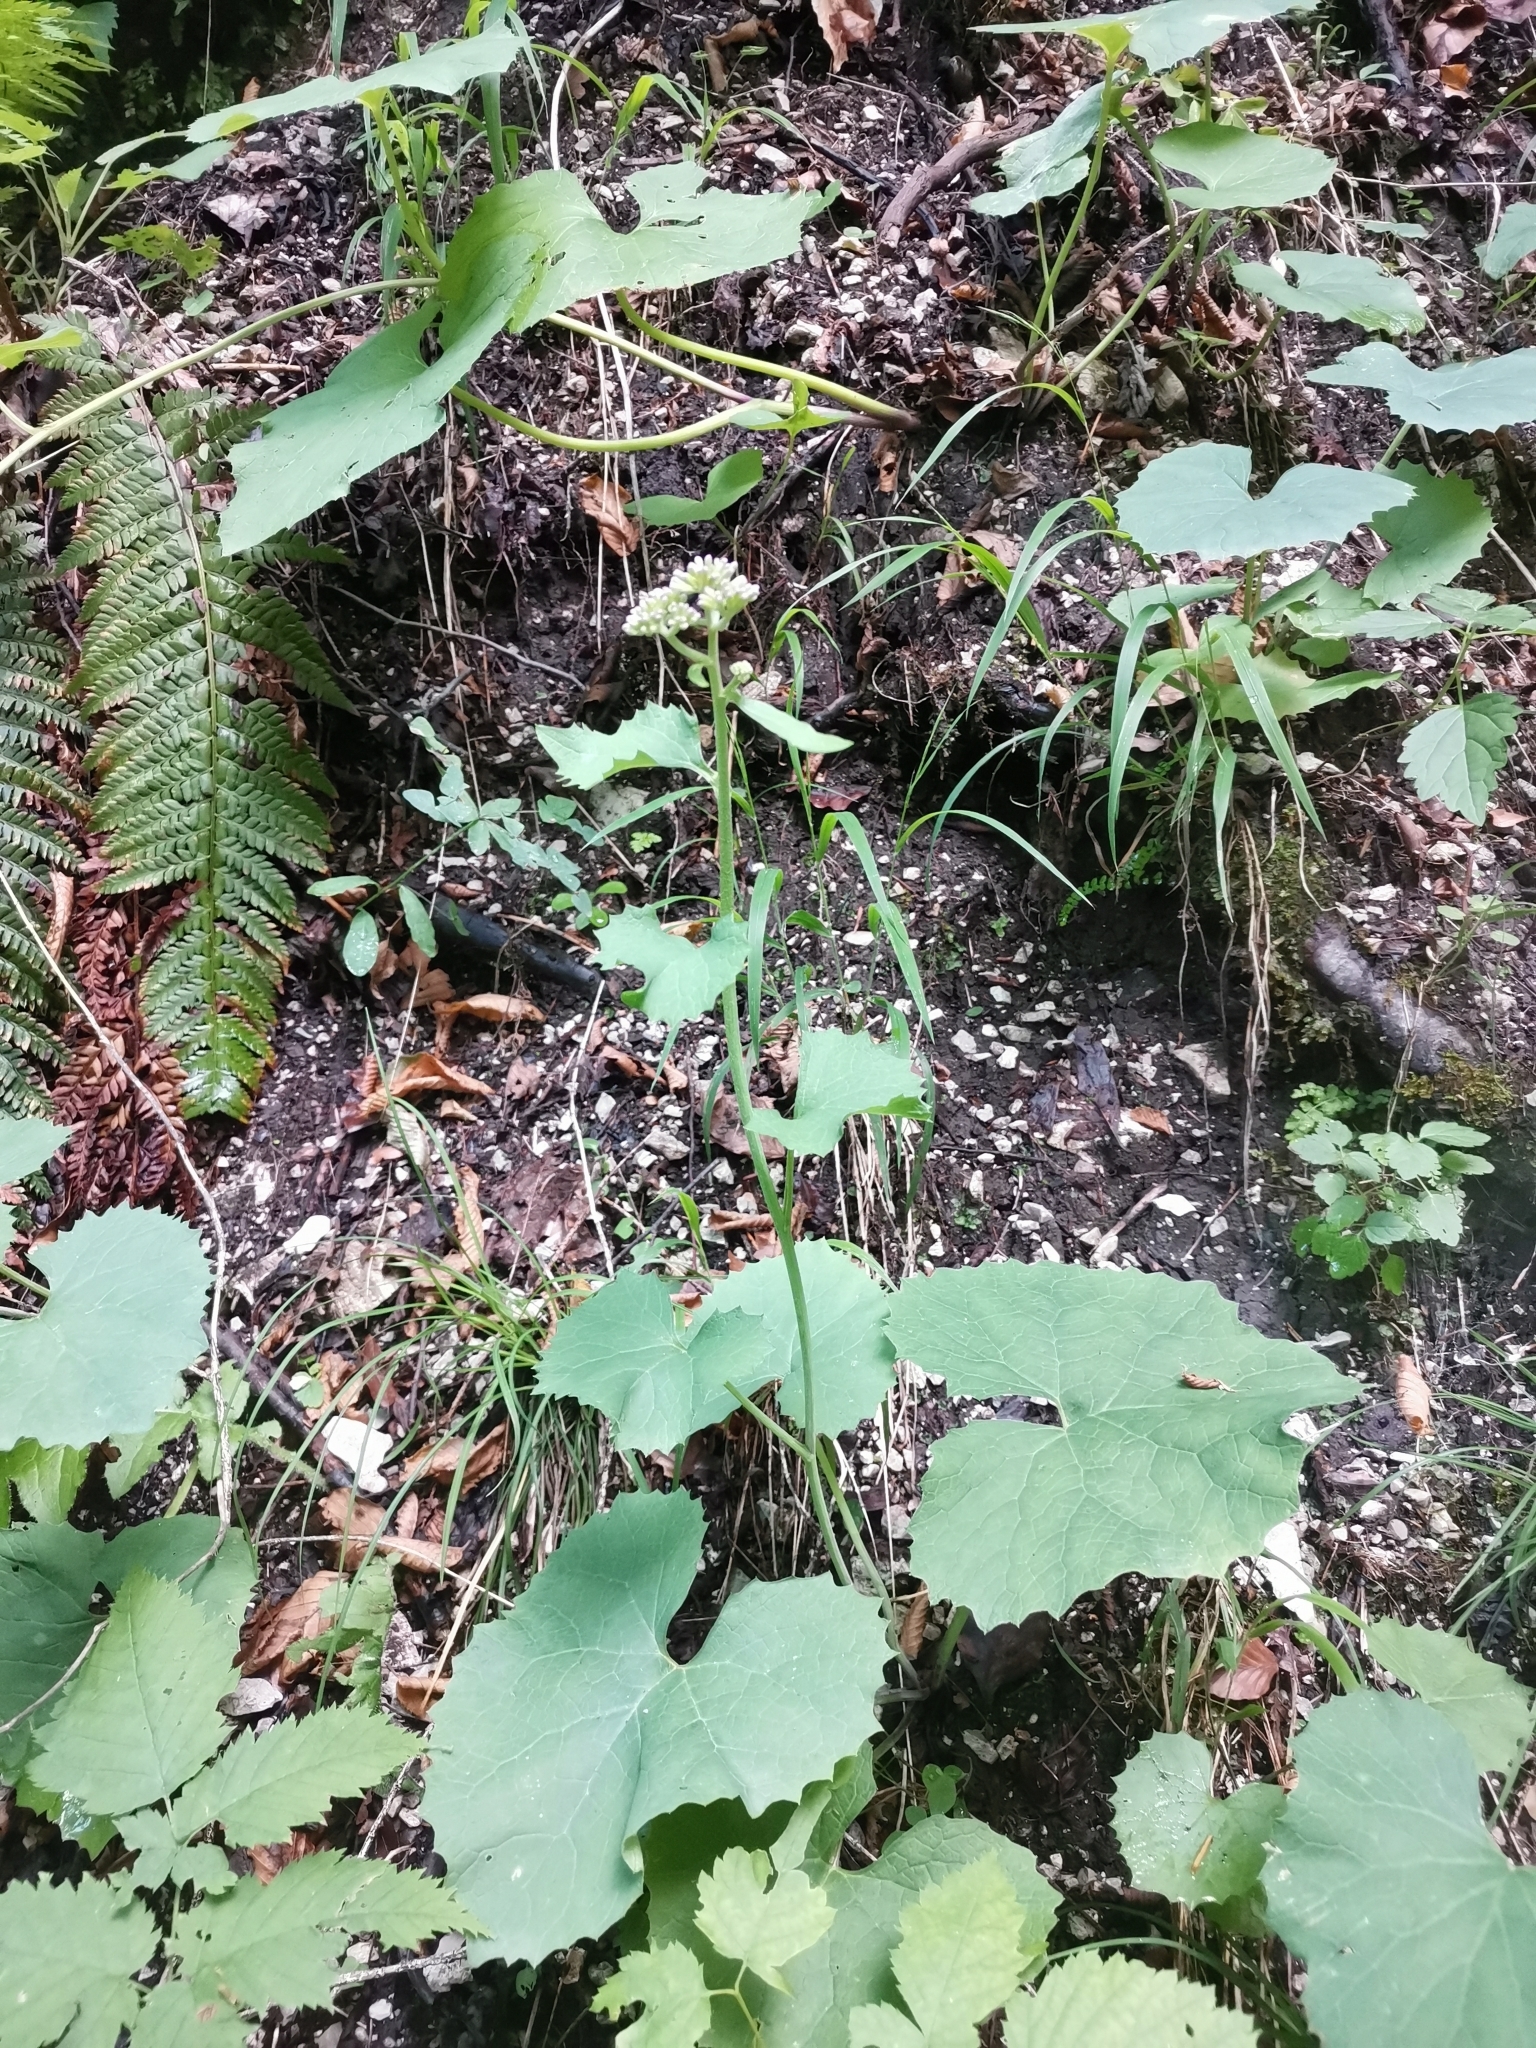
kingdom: Plantae
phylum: Tracheophyta
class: Magnoliopsida
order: Asterales
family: Asteraceae
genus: Adenostyles
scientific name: Adenostyles alpina
